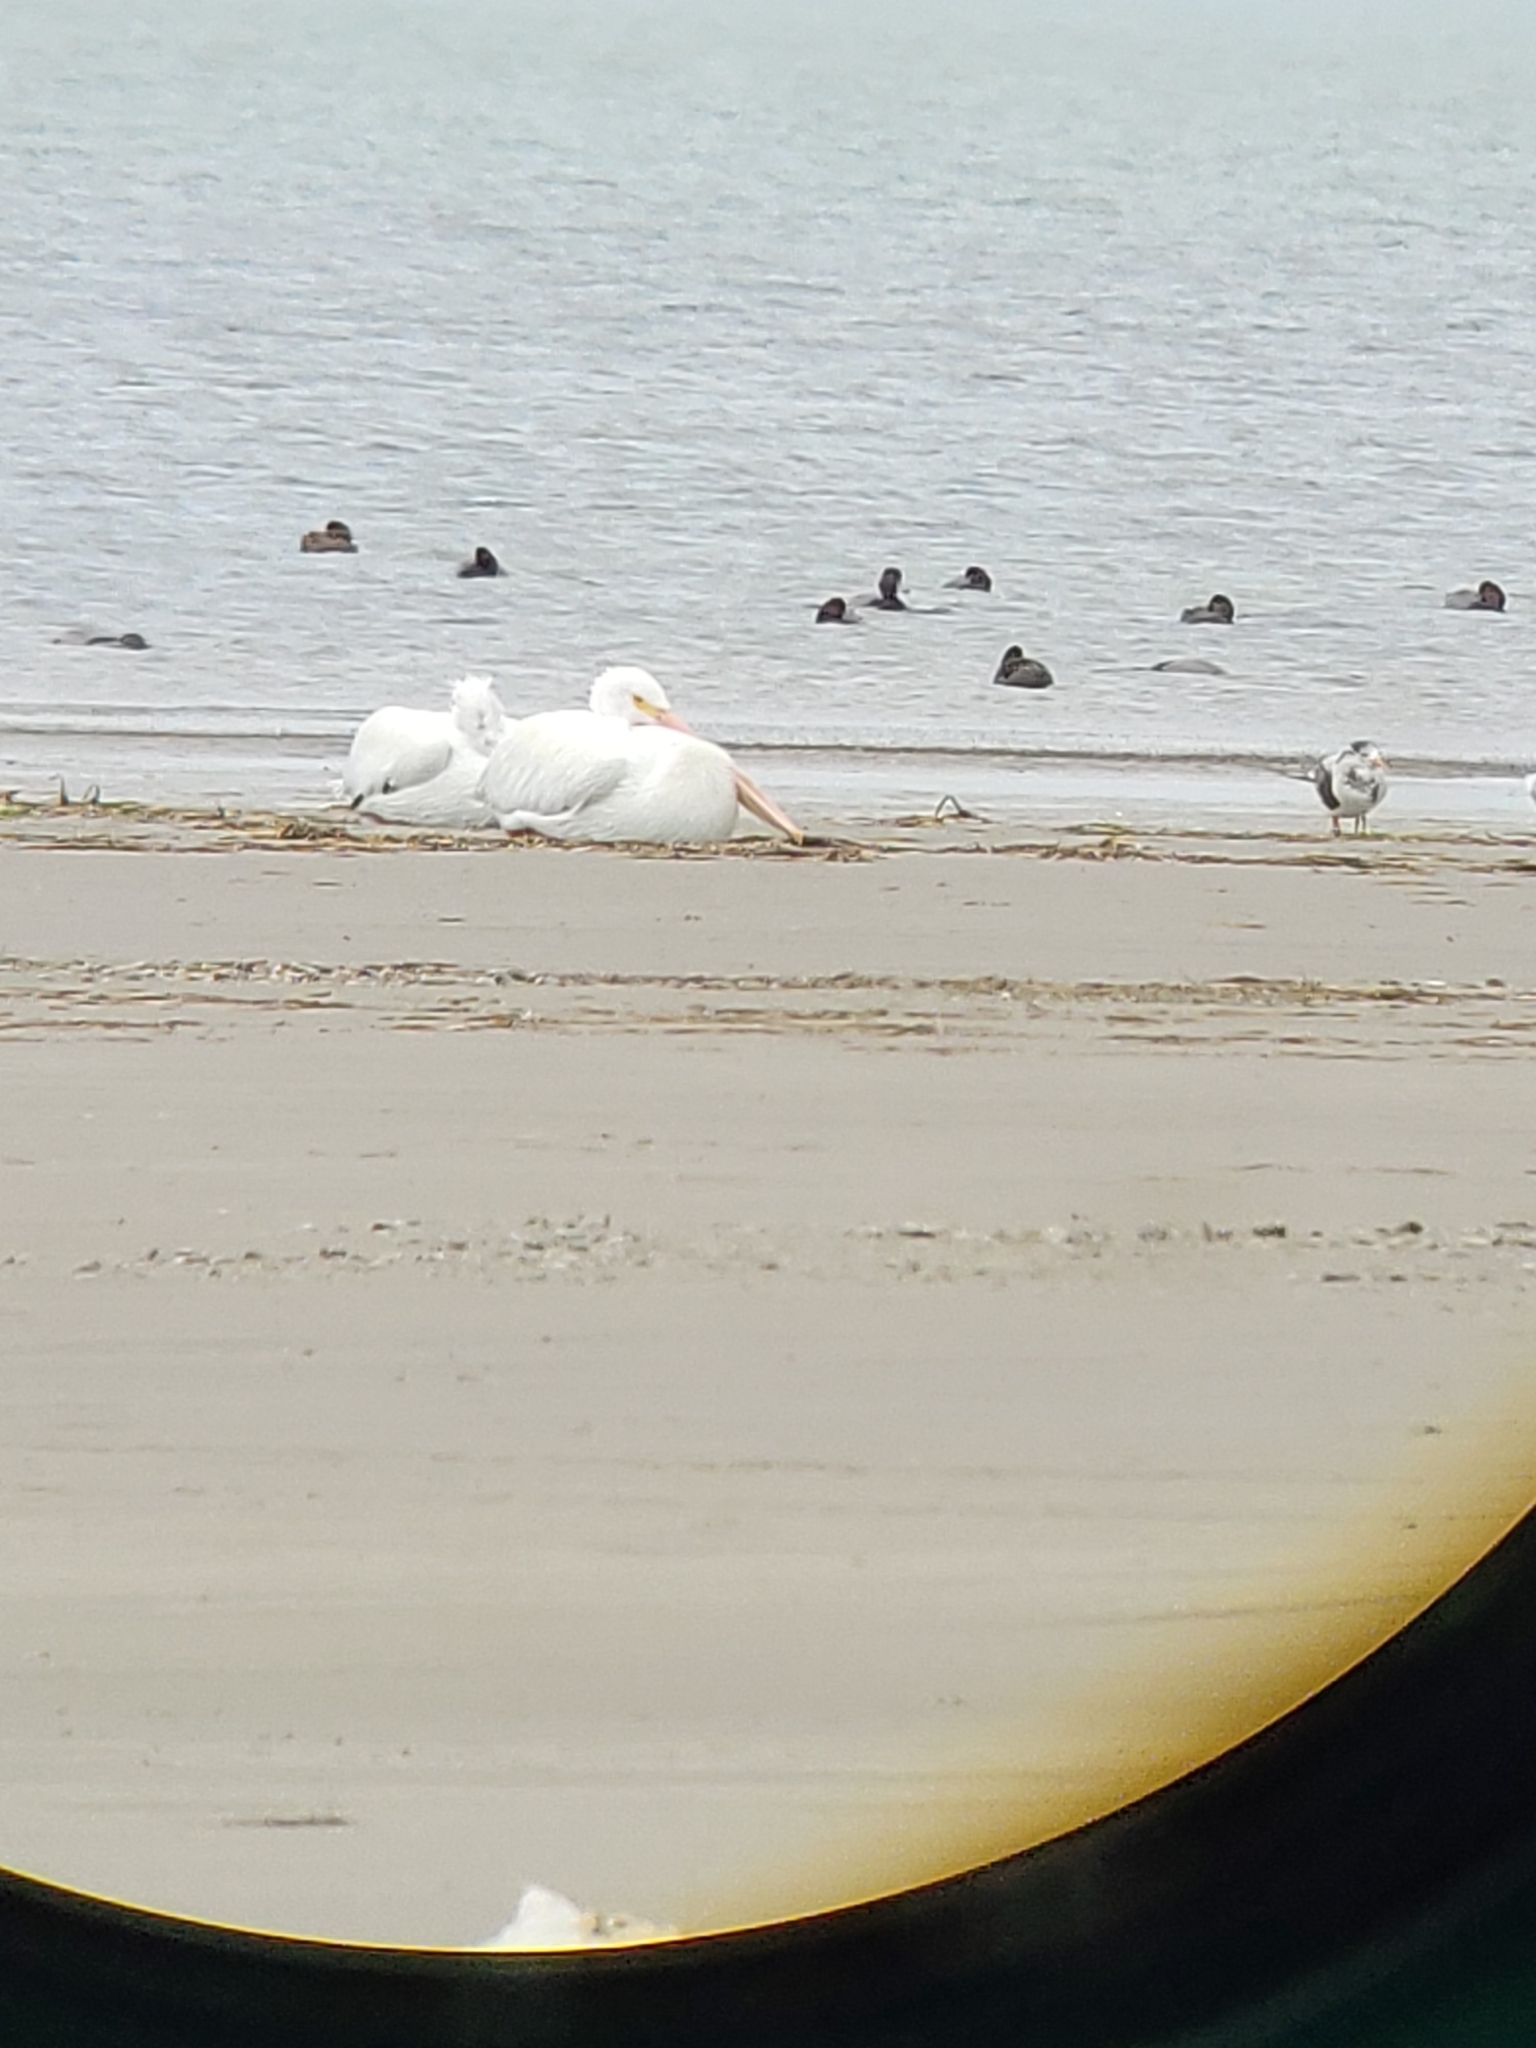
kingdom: Animalia
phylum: Chordata
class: Aves
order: Pelecaniformes
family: Pelecanidae
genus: Pelecanus
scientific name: Pelecanus erythrorhynchos
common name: American white pelican
